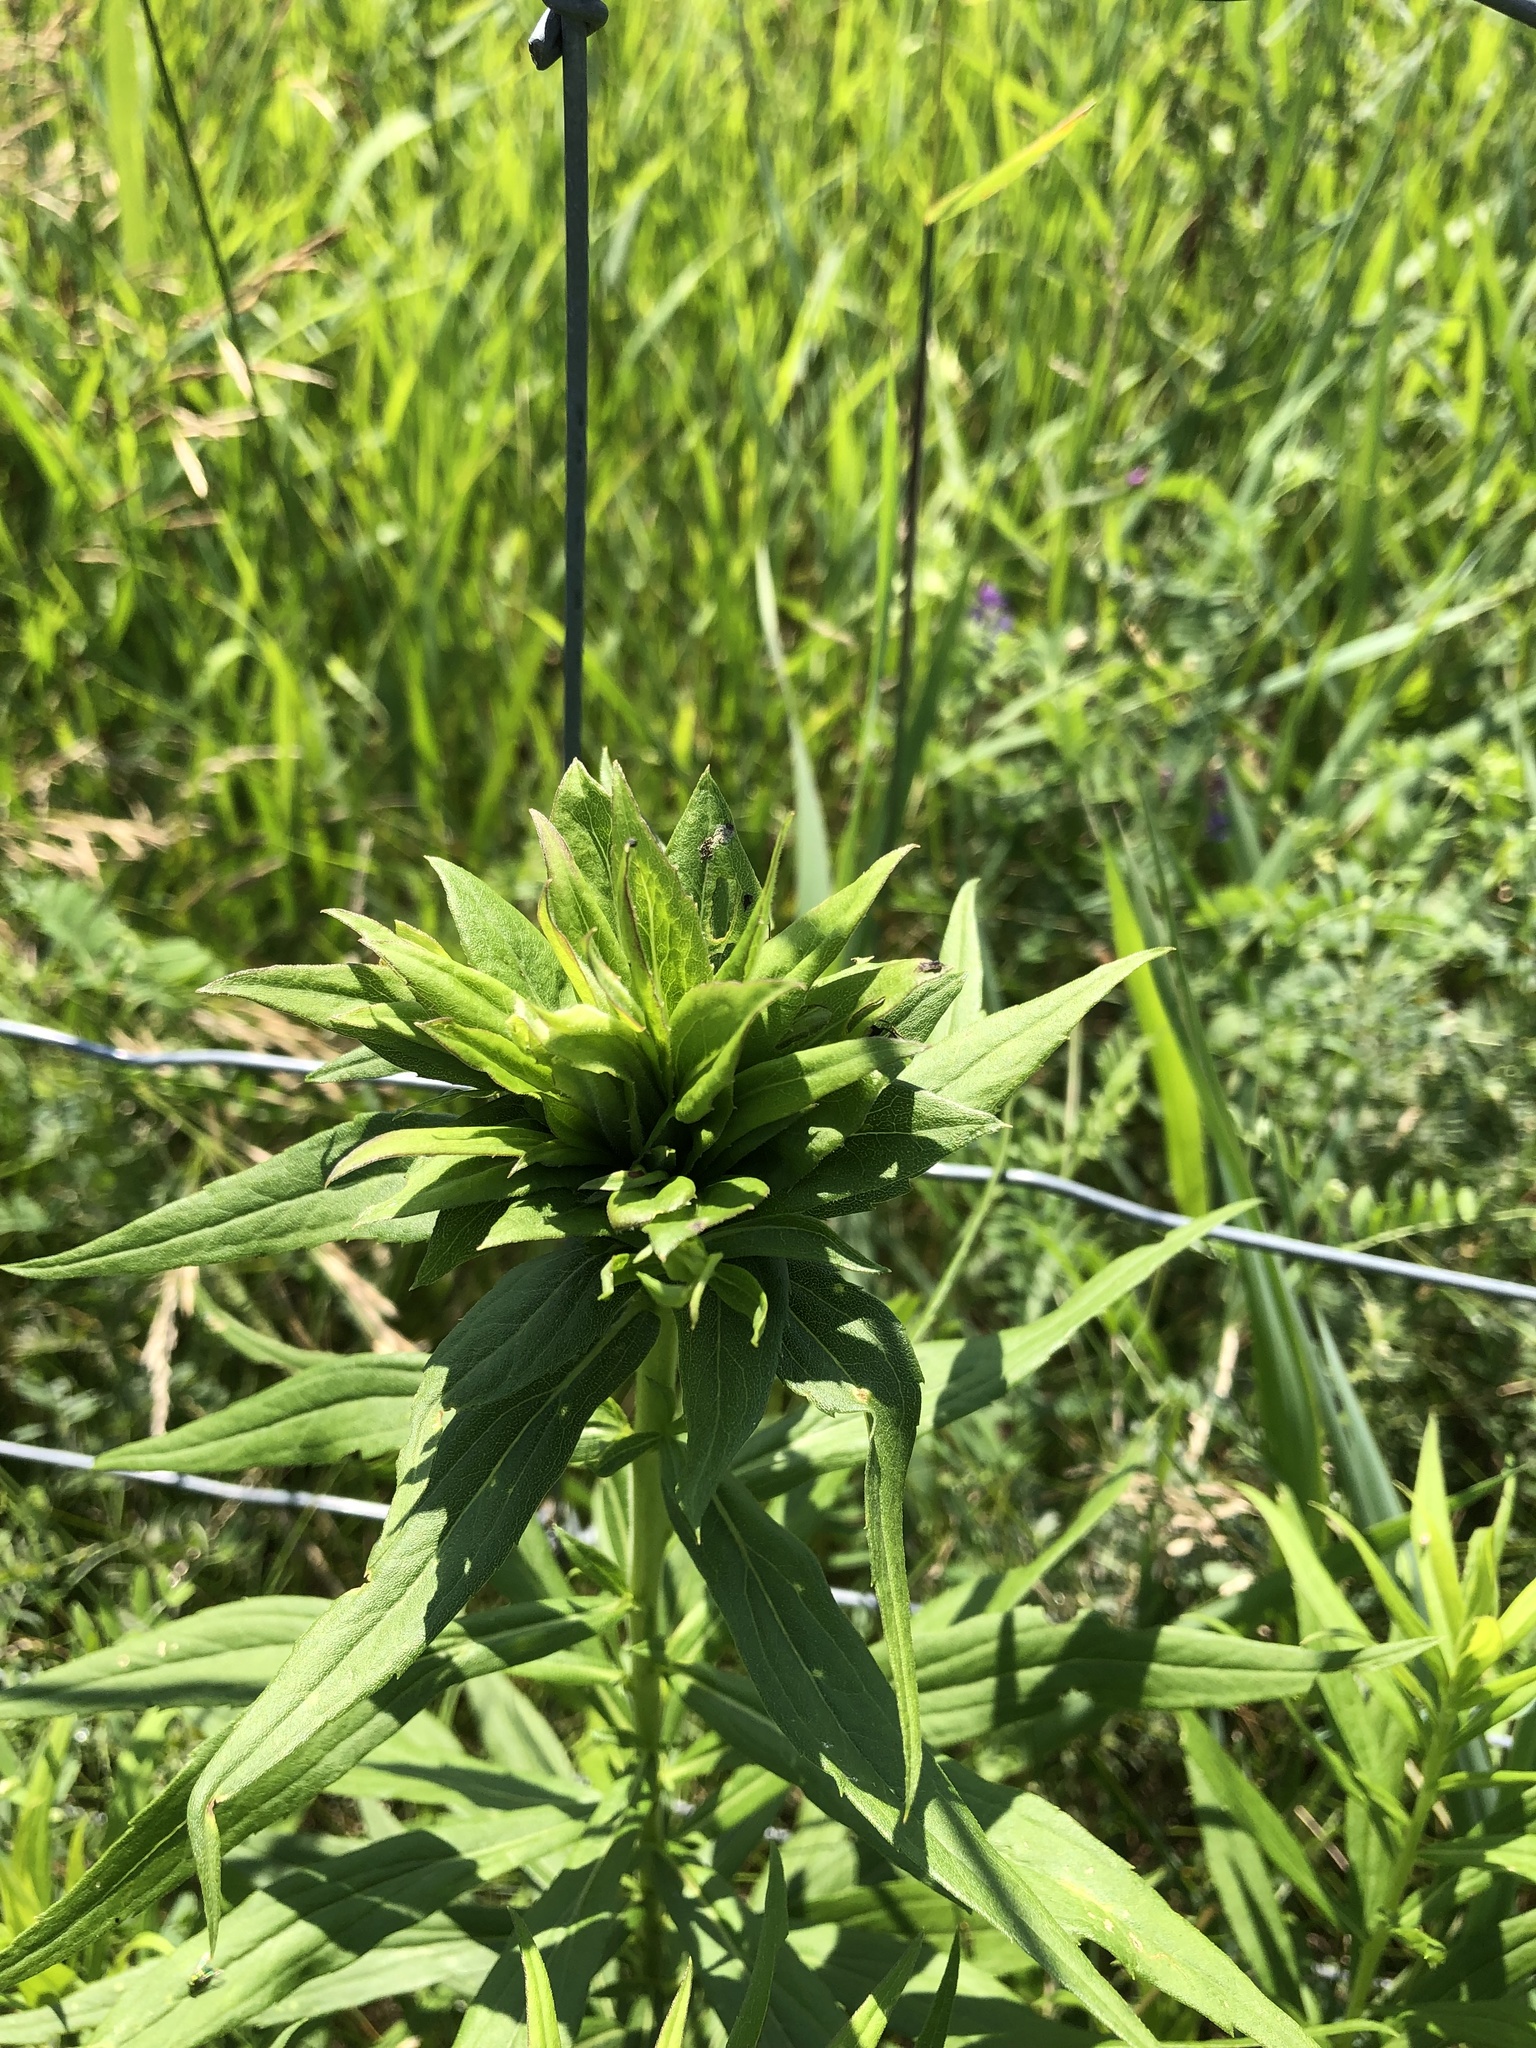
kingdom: Animalia
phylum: Arthropoda
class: Insecta
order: Diptera
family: Cecidomyiidae
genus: Rhopalomyia
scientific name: Rhopalomyia solidaginis
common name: Goldenrod bunch gall midge
